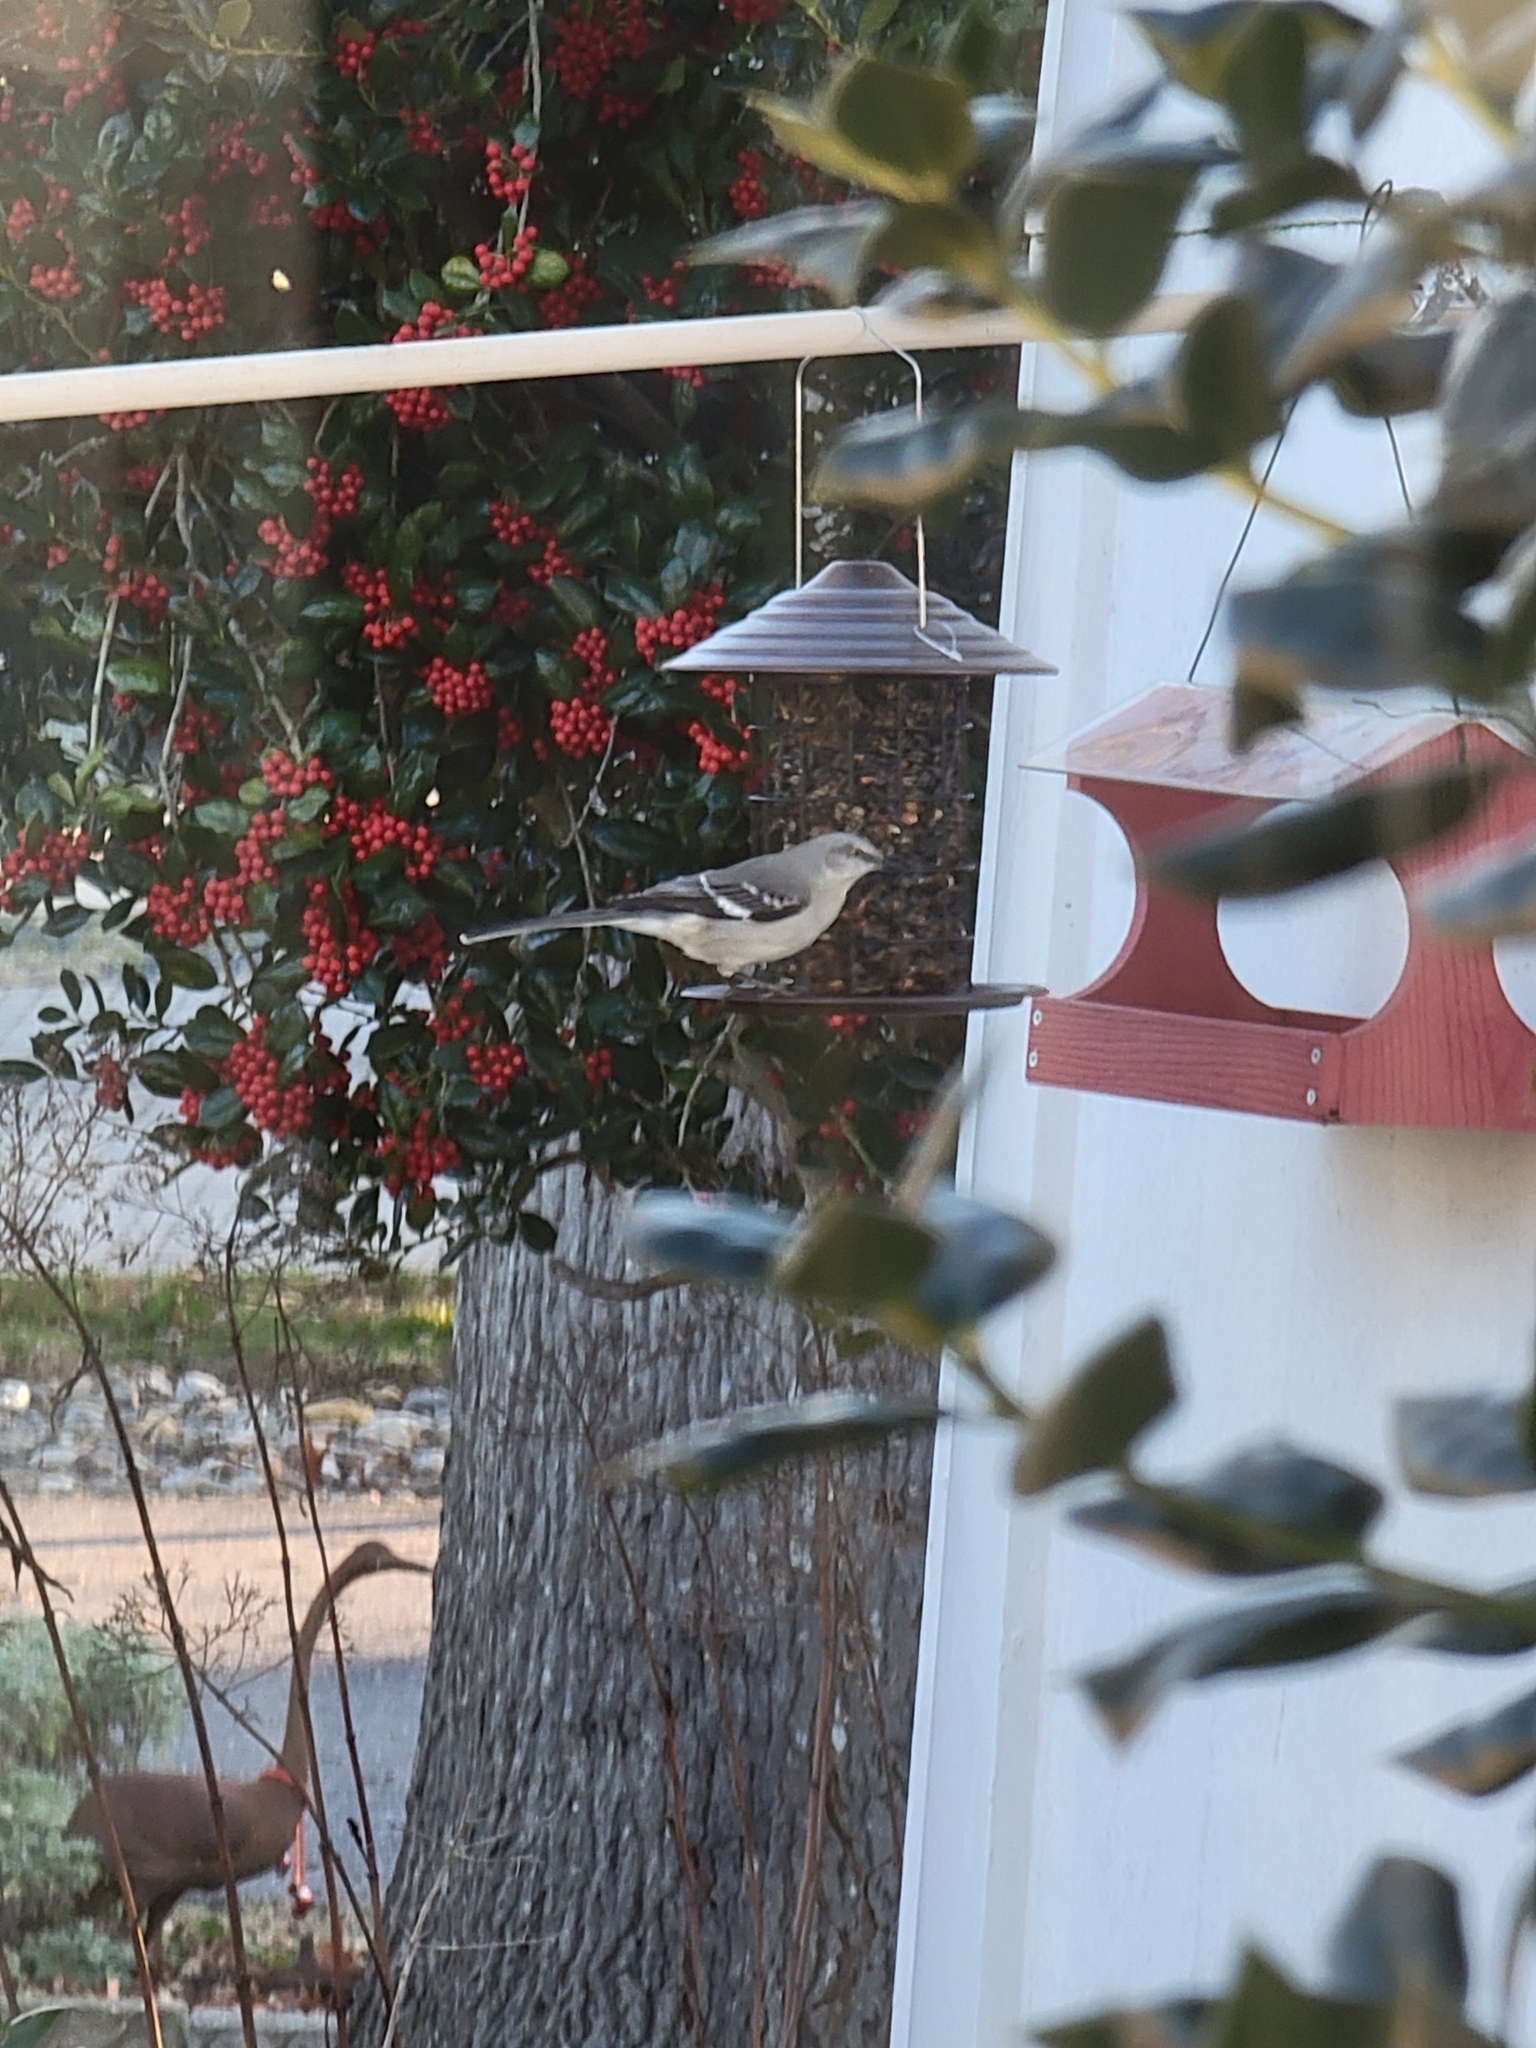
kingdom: Animalia
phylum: Chordata
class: Aves
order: Passeriformes
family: Mimidae
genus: Mimus
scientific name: Mimus polyglottos
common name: Northern mockingbird
